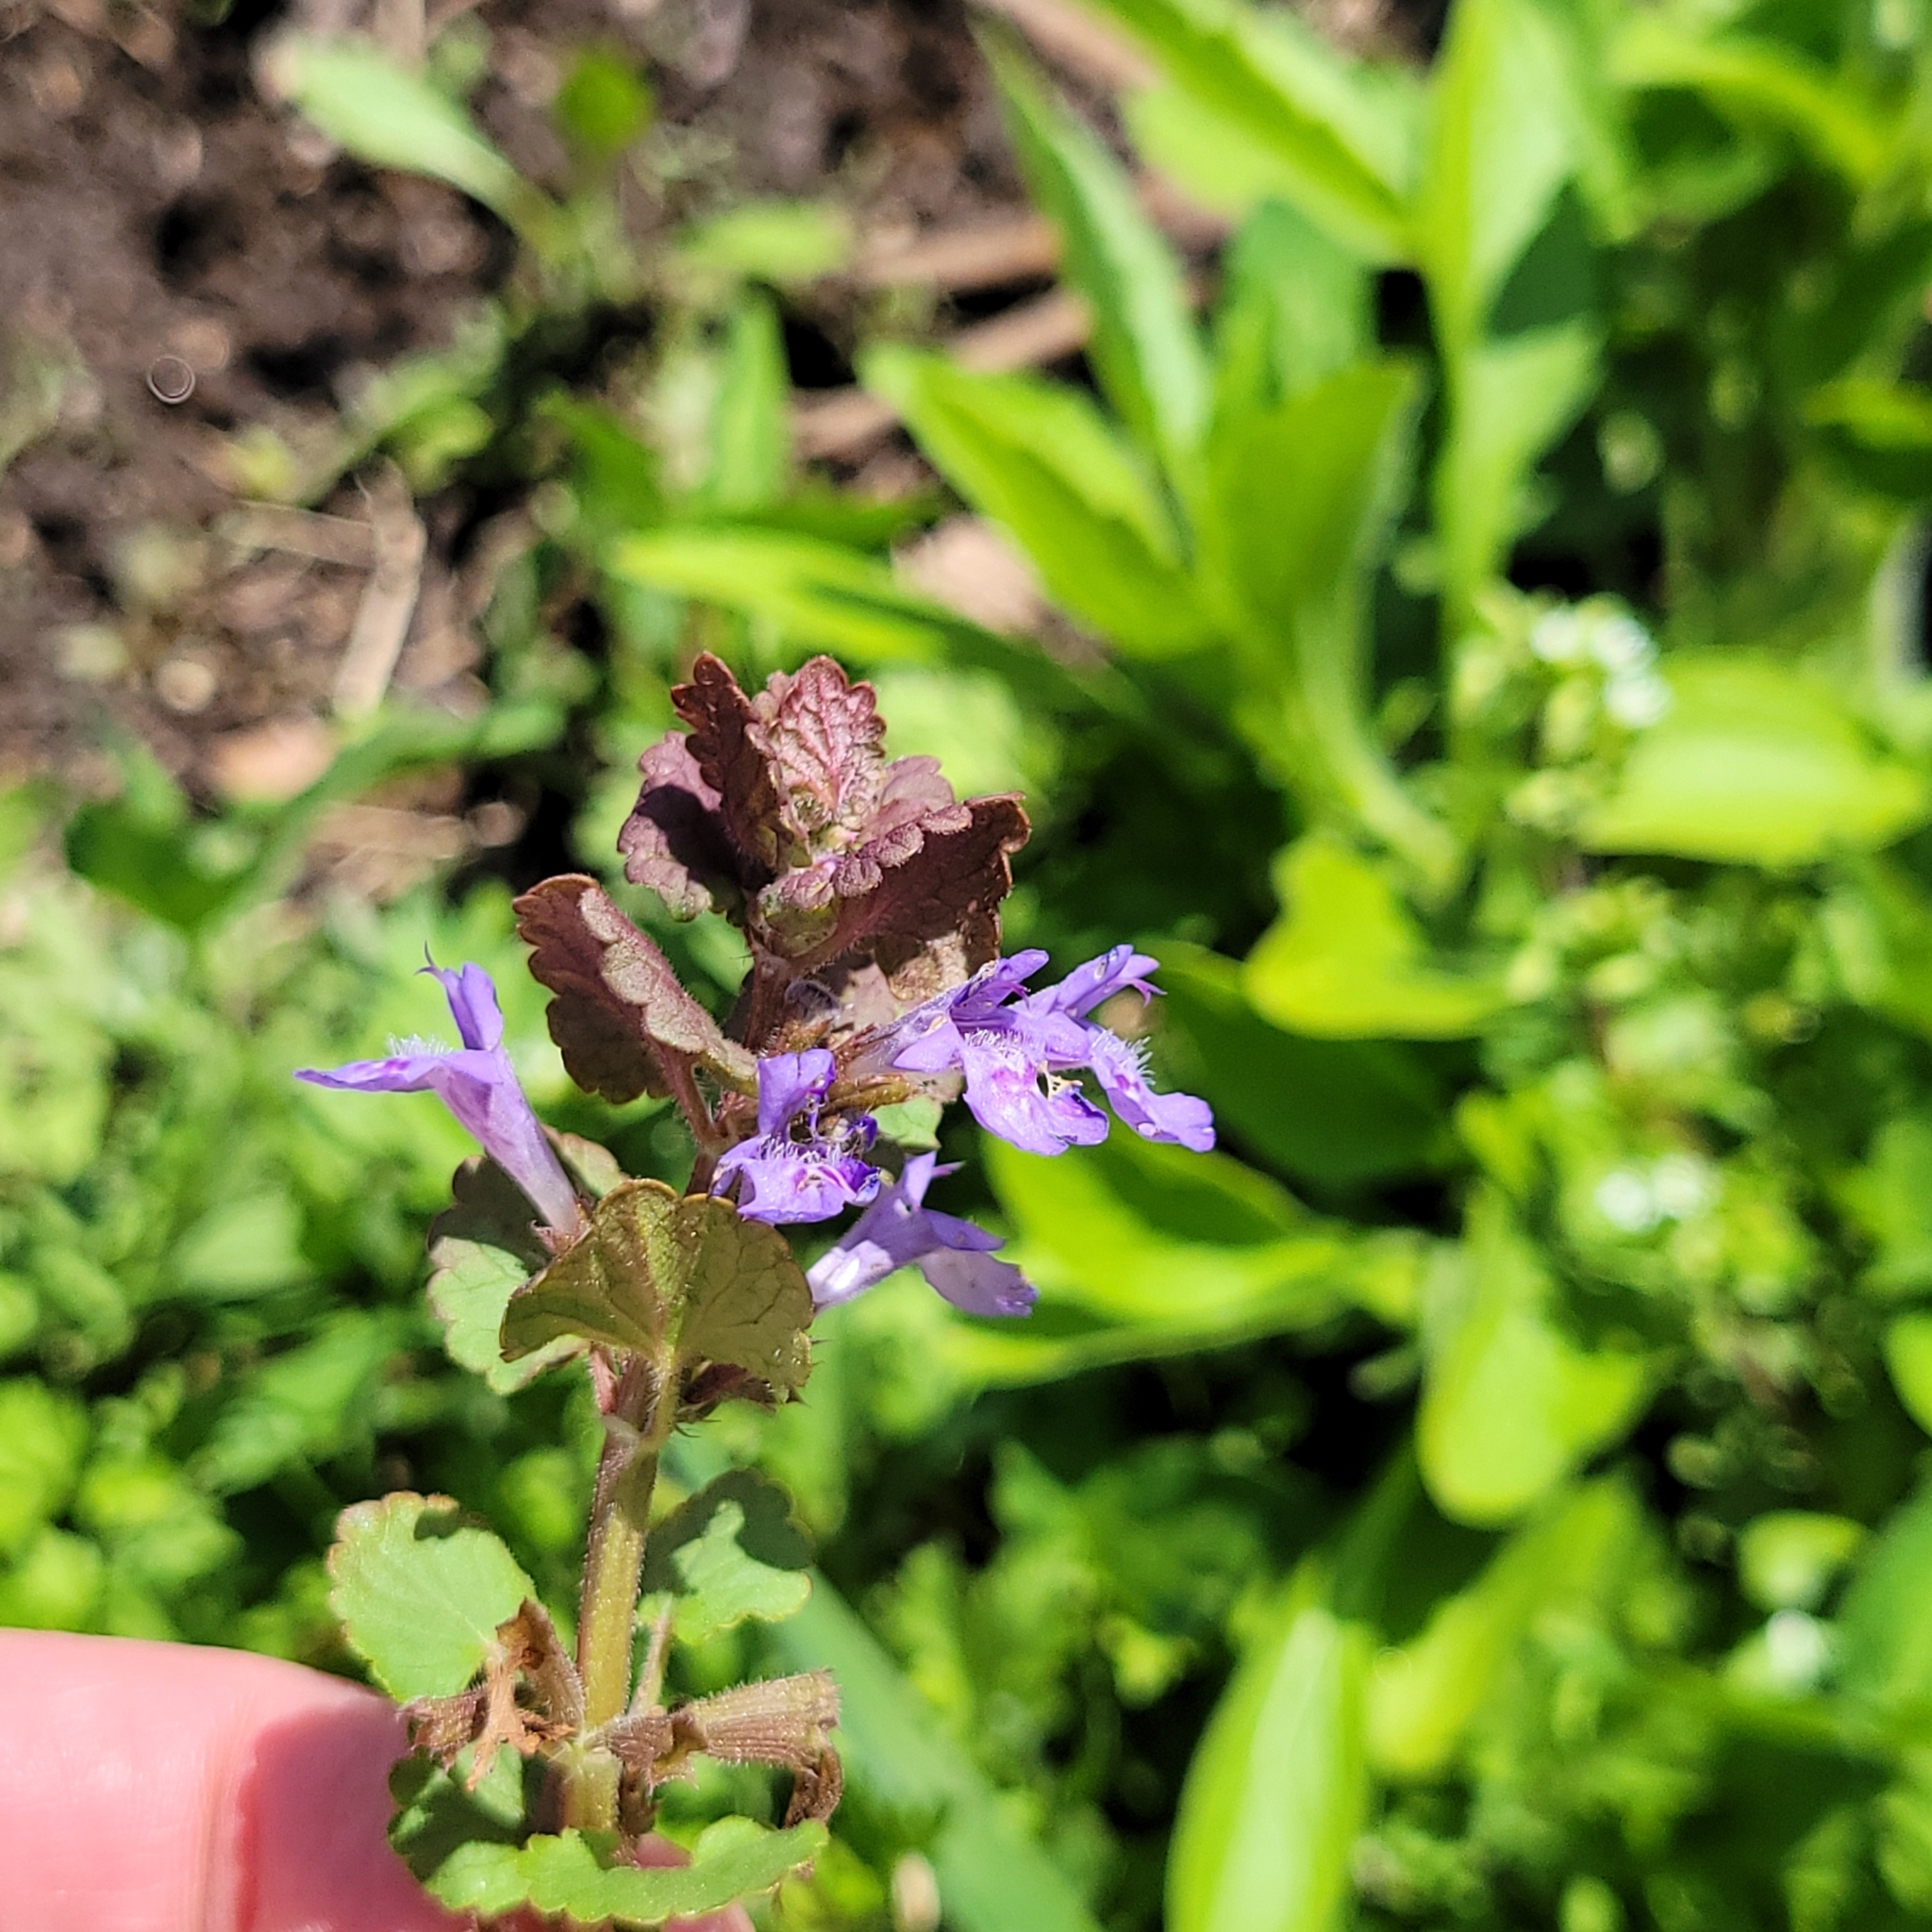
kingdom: Plantae
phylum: Tracheophyta
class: Magnoliopsida
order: Lamiales
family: Lamiaceae
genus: Glechoma
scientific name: Glechoma hederacea
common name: Ground ivy
